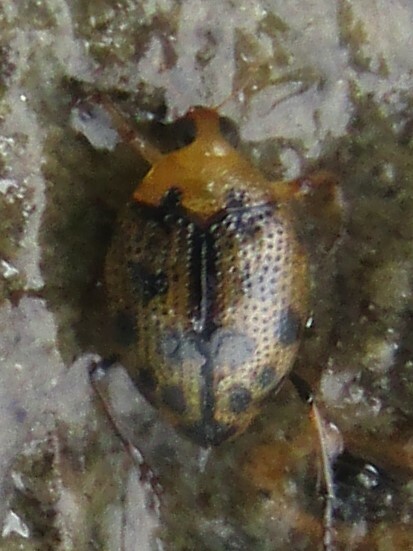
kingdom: Animalia
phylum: Arthropoda
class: Insecta
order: Coleoptera
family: Haliplidae
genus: Peltodytes
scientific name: Peltodytes
